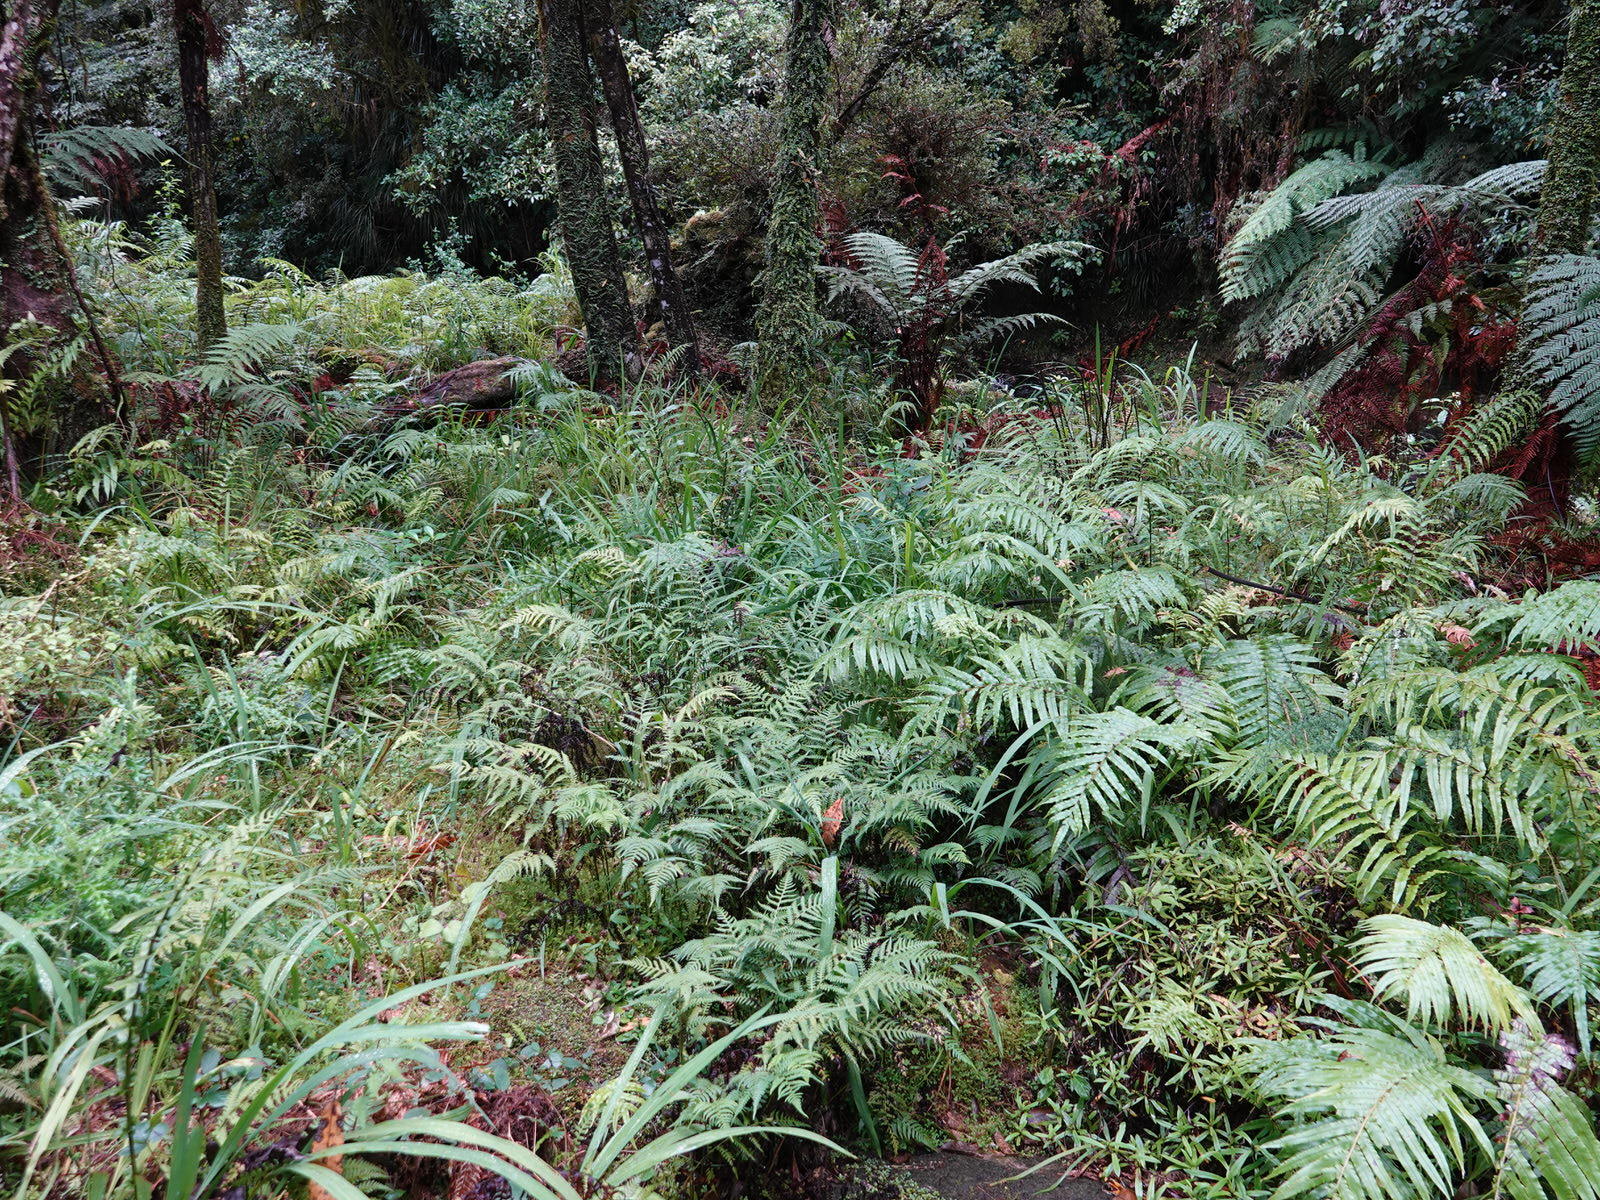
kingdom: Plantae
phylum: Tracheophyta
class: Polypodiopsida
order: Polypodiales
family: Athyriaceae
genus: Deparia
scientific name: Deparia petersenii
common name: Japanese false spleenwort
